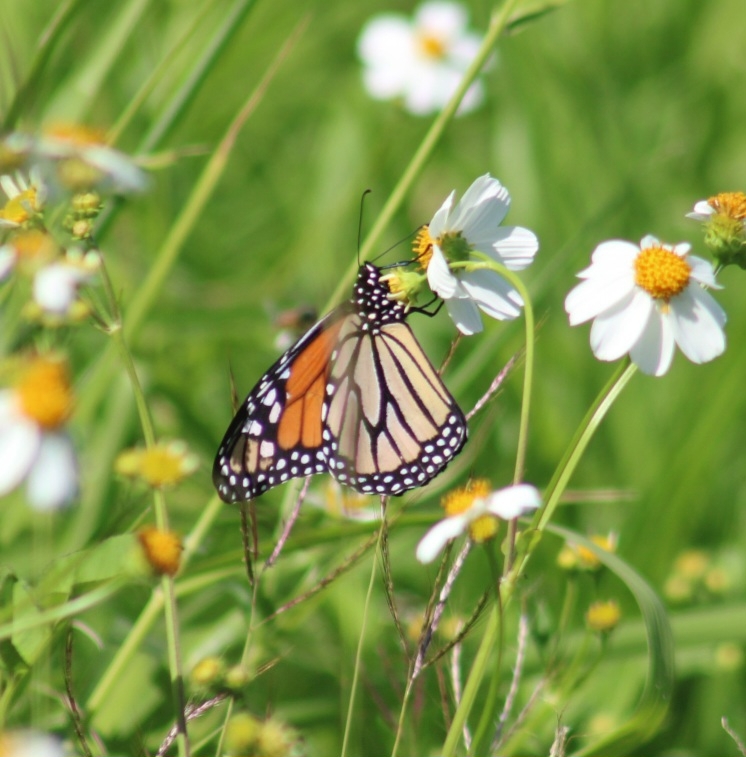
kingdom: Animalia
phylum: Arthropoda
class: Insecta
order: Lepidoptera
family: Nymphalidae
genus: Danaus
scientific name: Danaus plexippus
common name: Monarch
